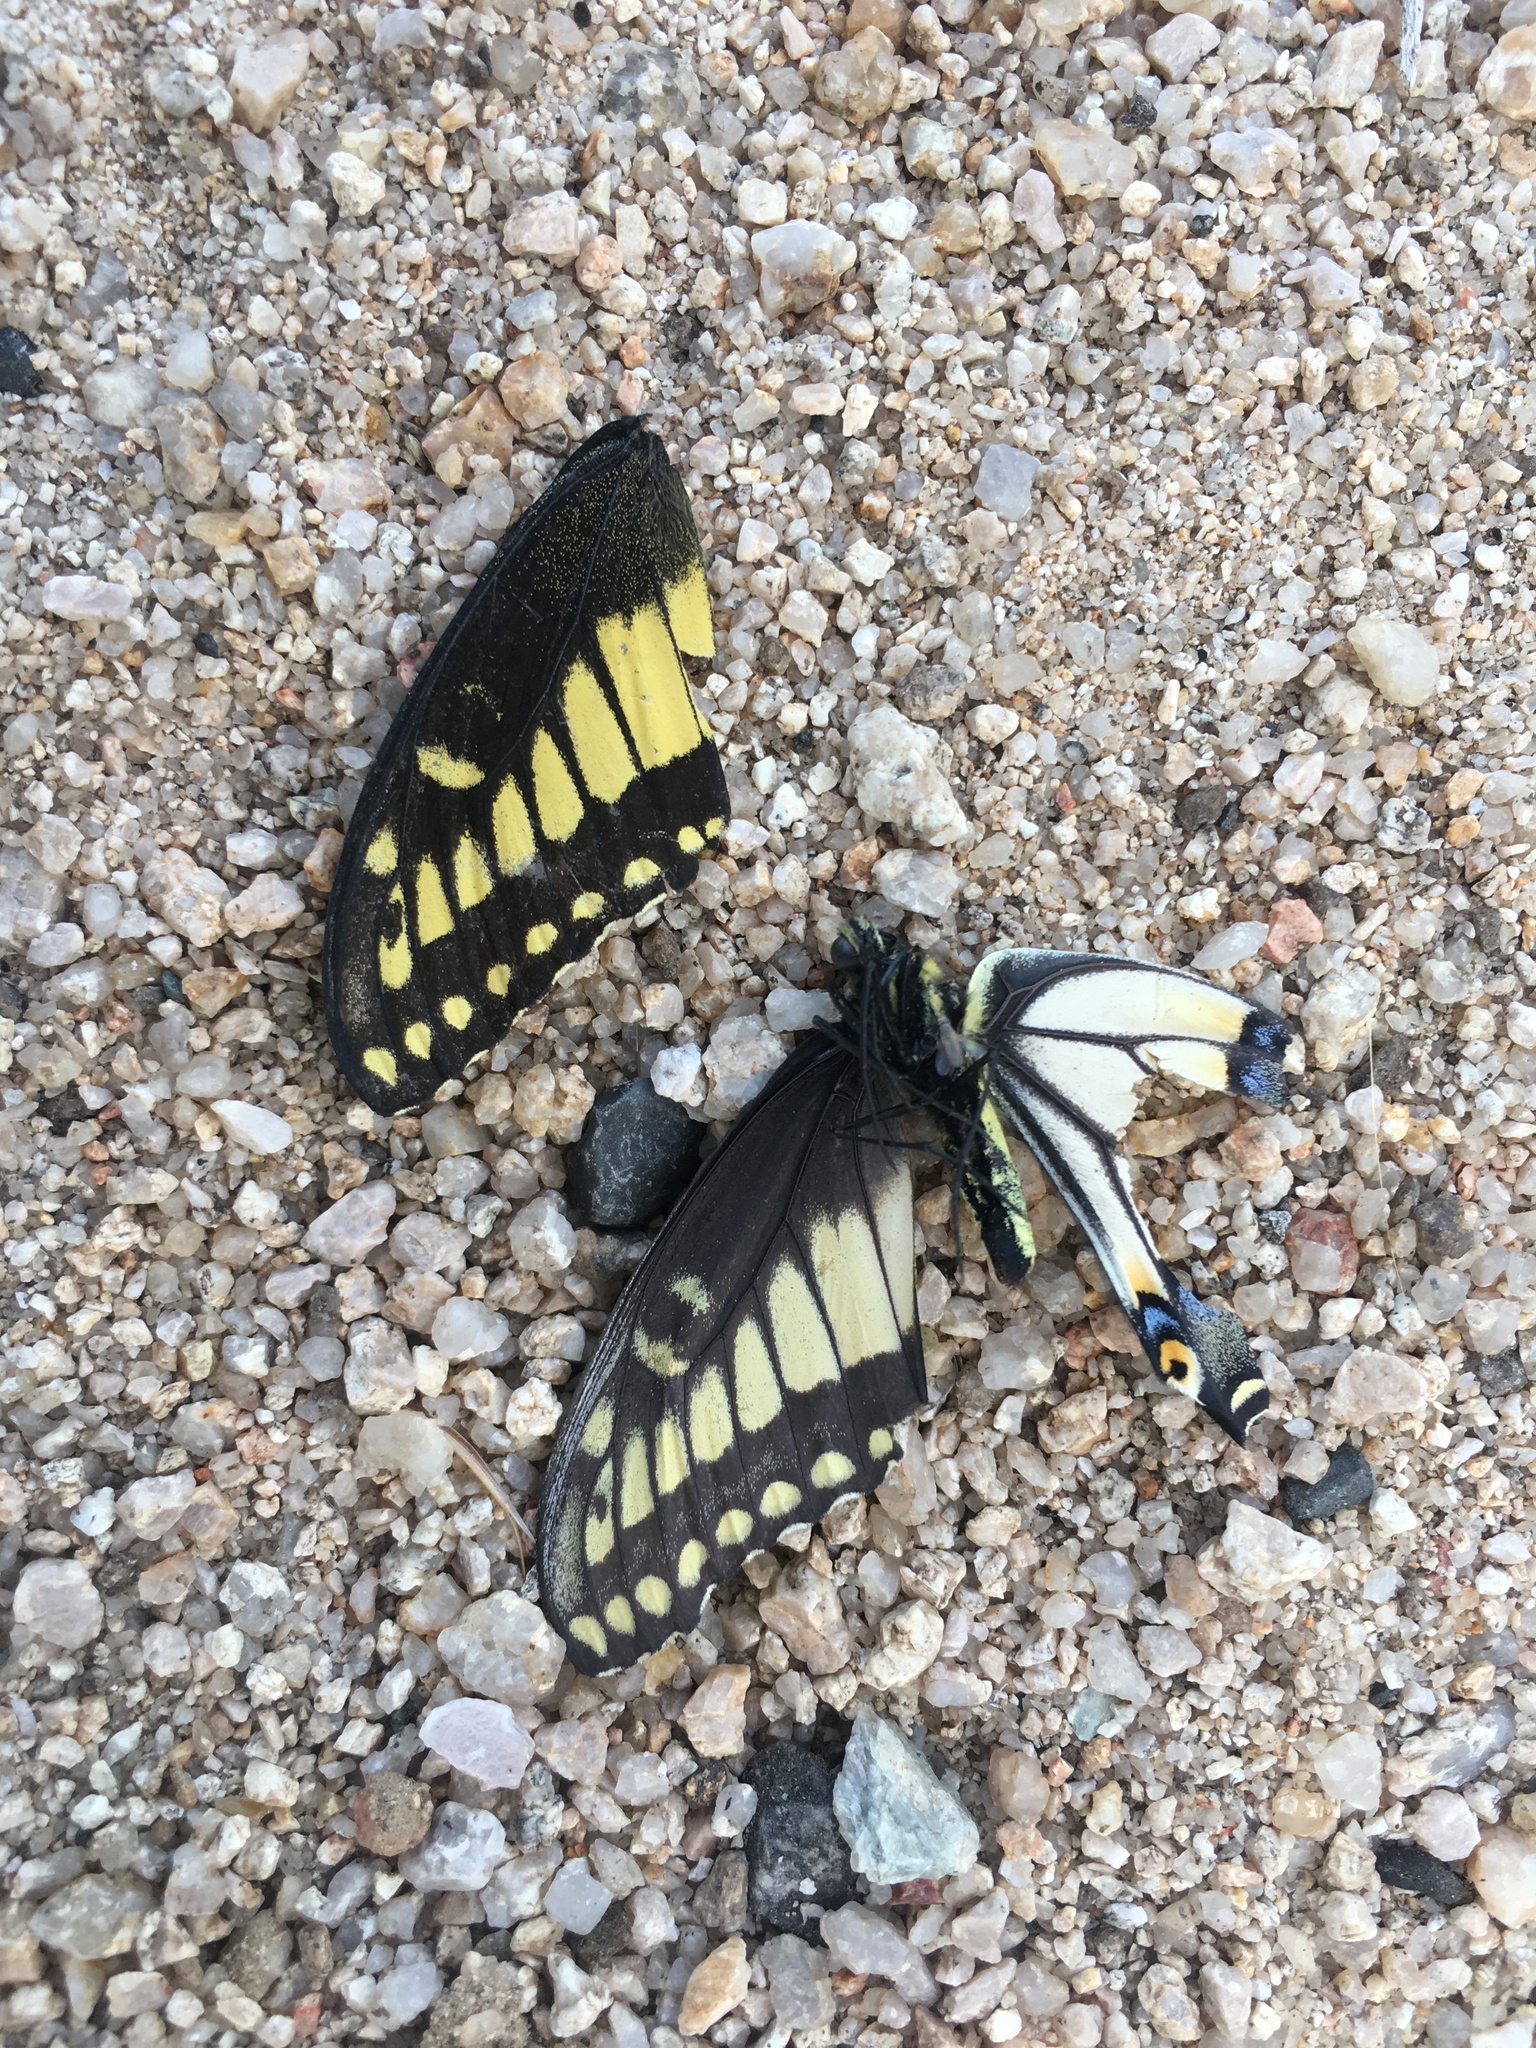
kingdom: Animalia
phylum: Arthropoda
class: Insecta
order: Lepidoptera
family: Papilionidae
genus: Papilio
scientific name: Papilio polyxenes
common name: Black swallowtail
